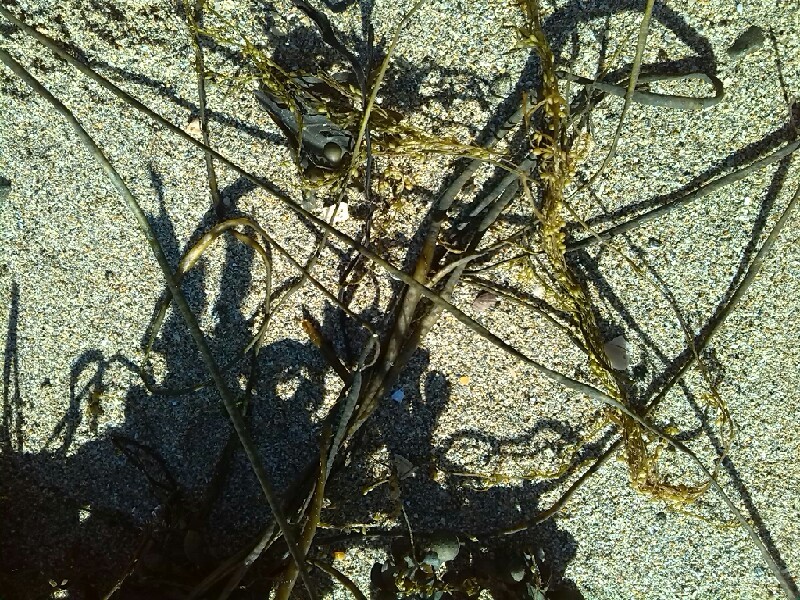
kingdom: Chromista
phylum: Ochrophyta
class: Phaeophyceae
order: Fucales
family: Himanthaliaceae
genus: Himanthalia
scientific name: Himanthalia elongata
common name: Sea-thong
